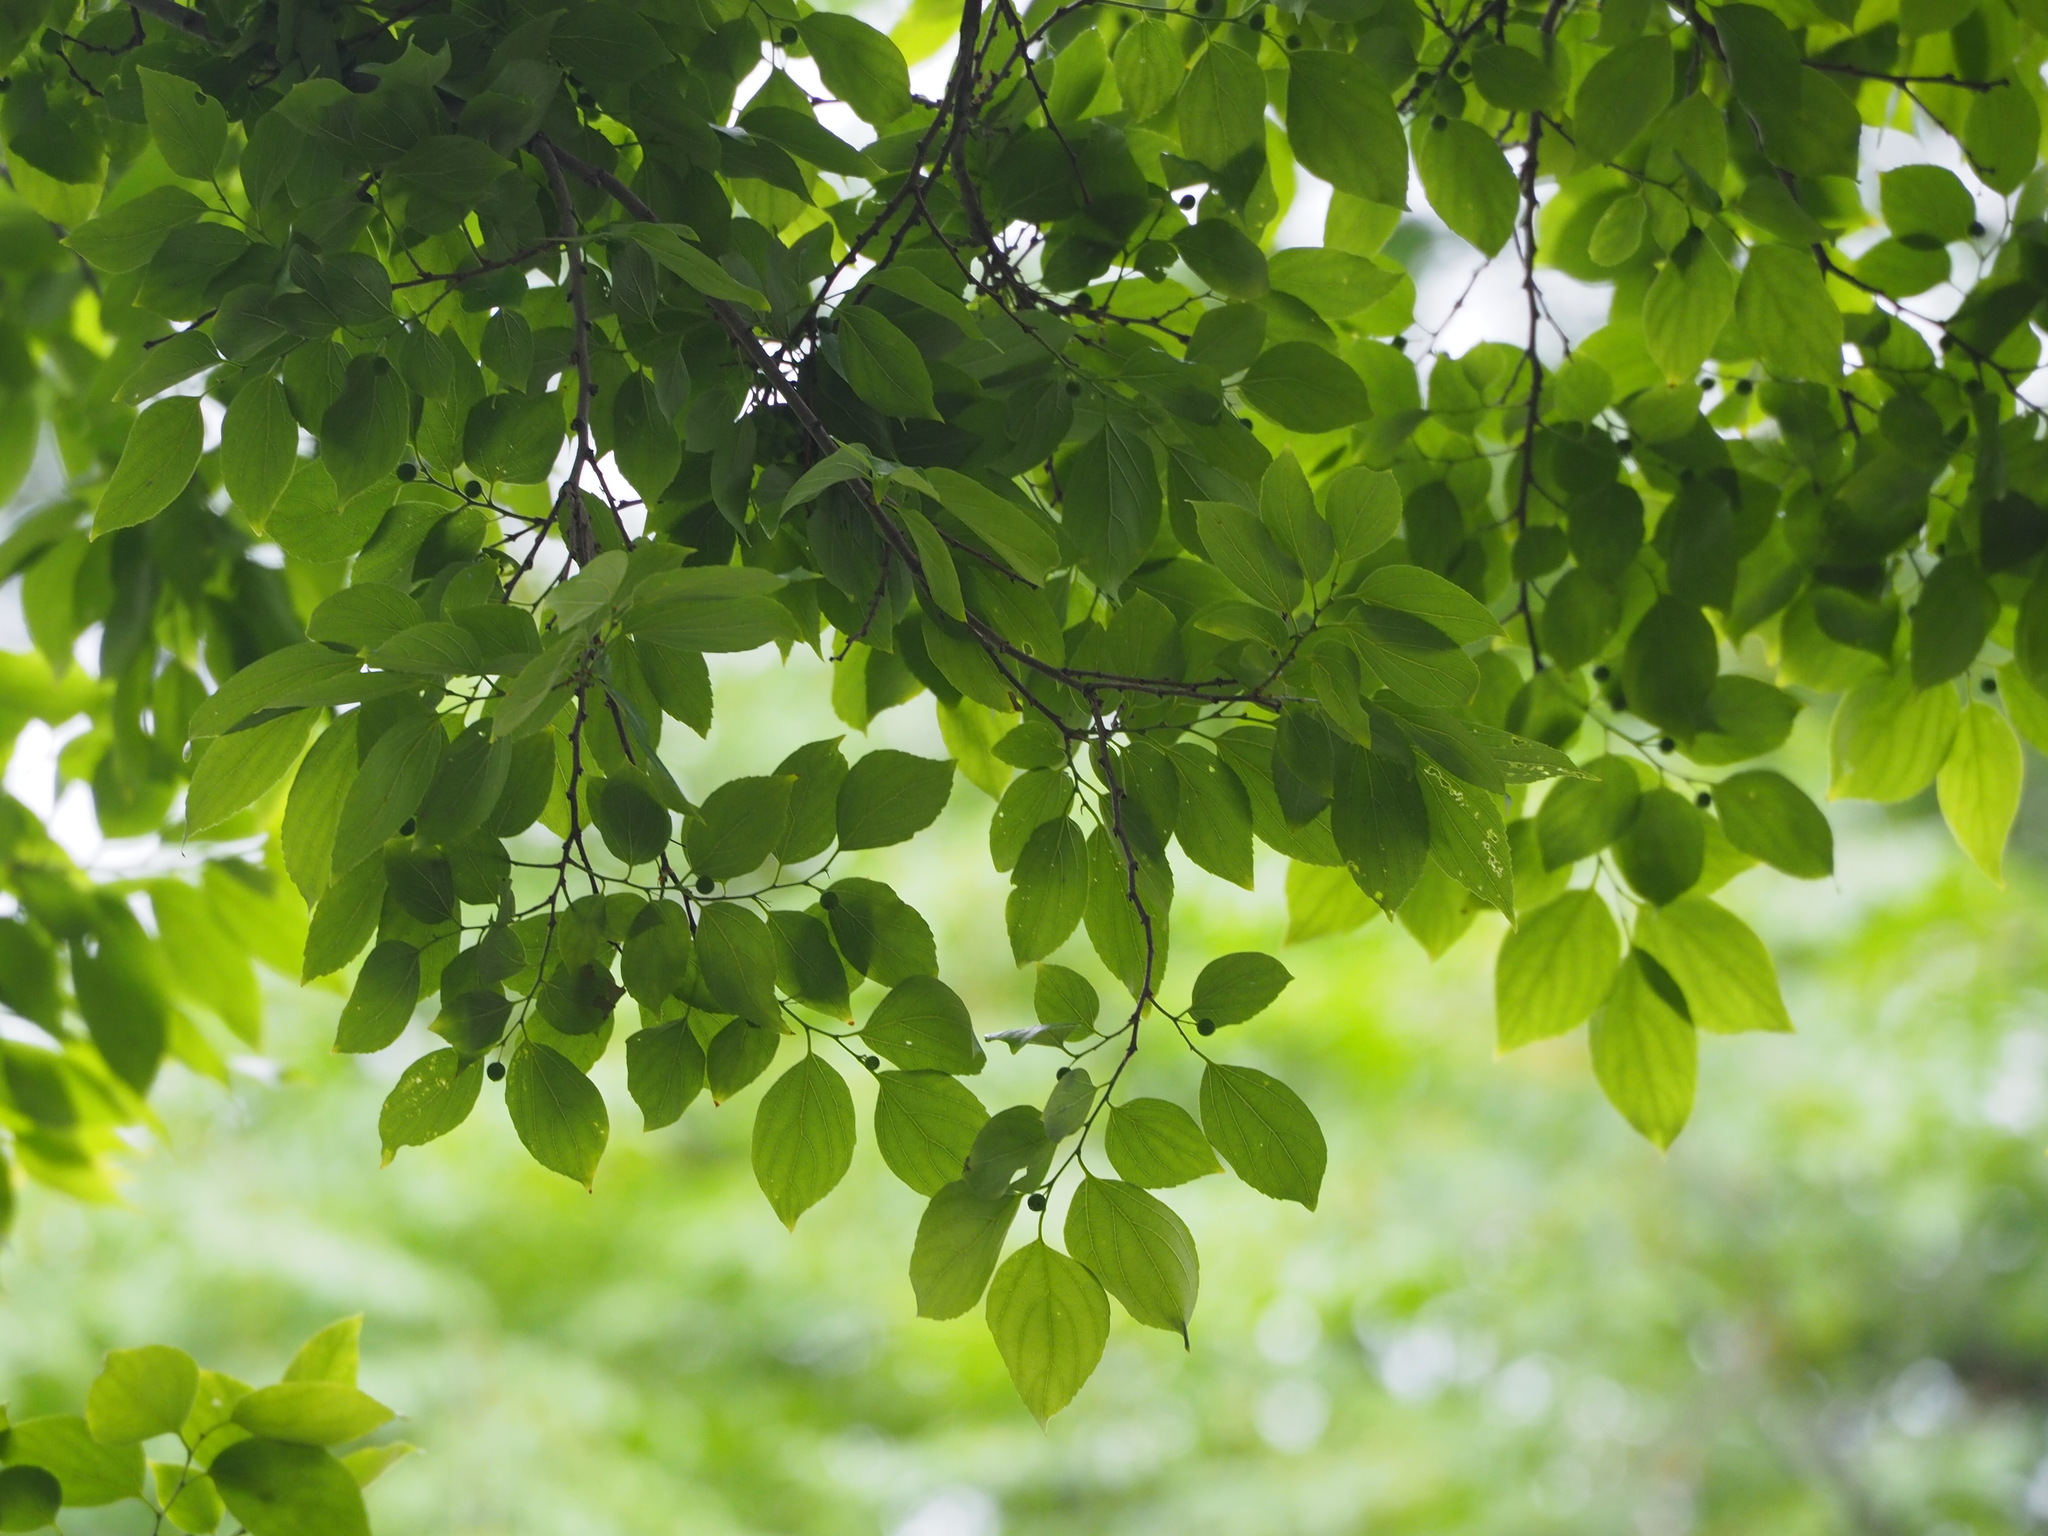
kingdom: Plantae
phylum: Tracheophyta
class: Magnoliopsida
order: Rosales
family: Cannabaceae
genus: Celtis
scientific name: Celtis sinensis
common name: Chinese hackberry
